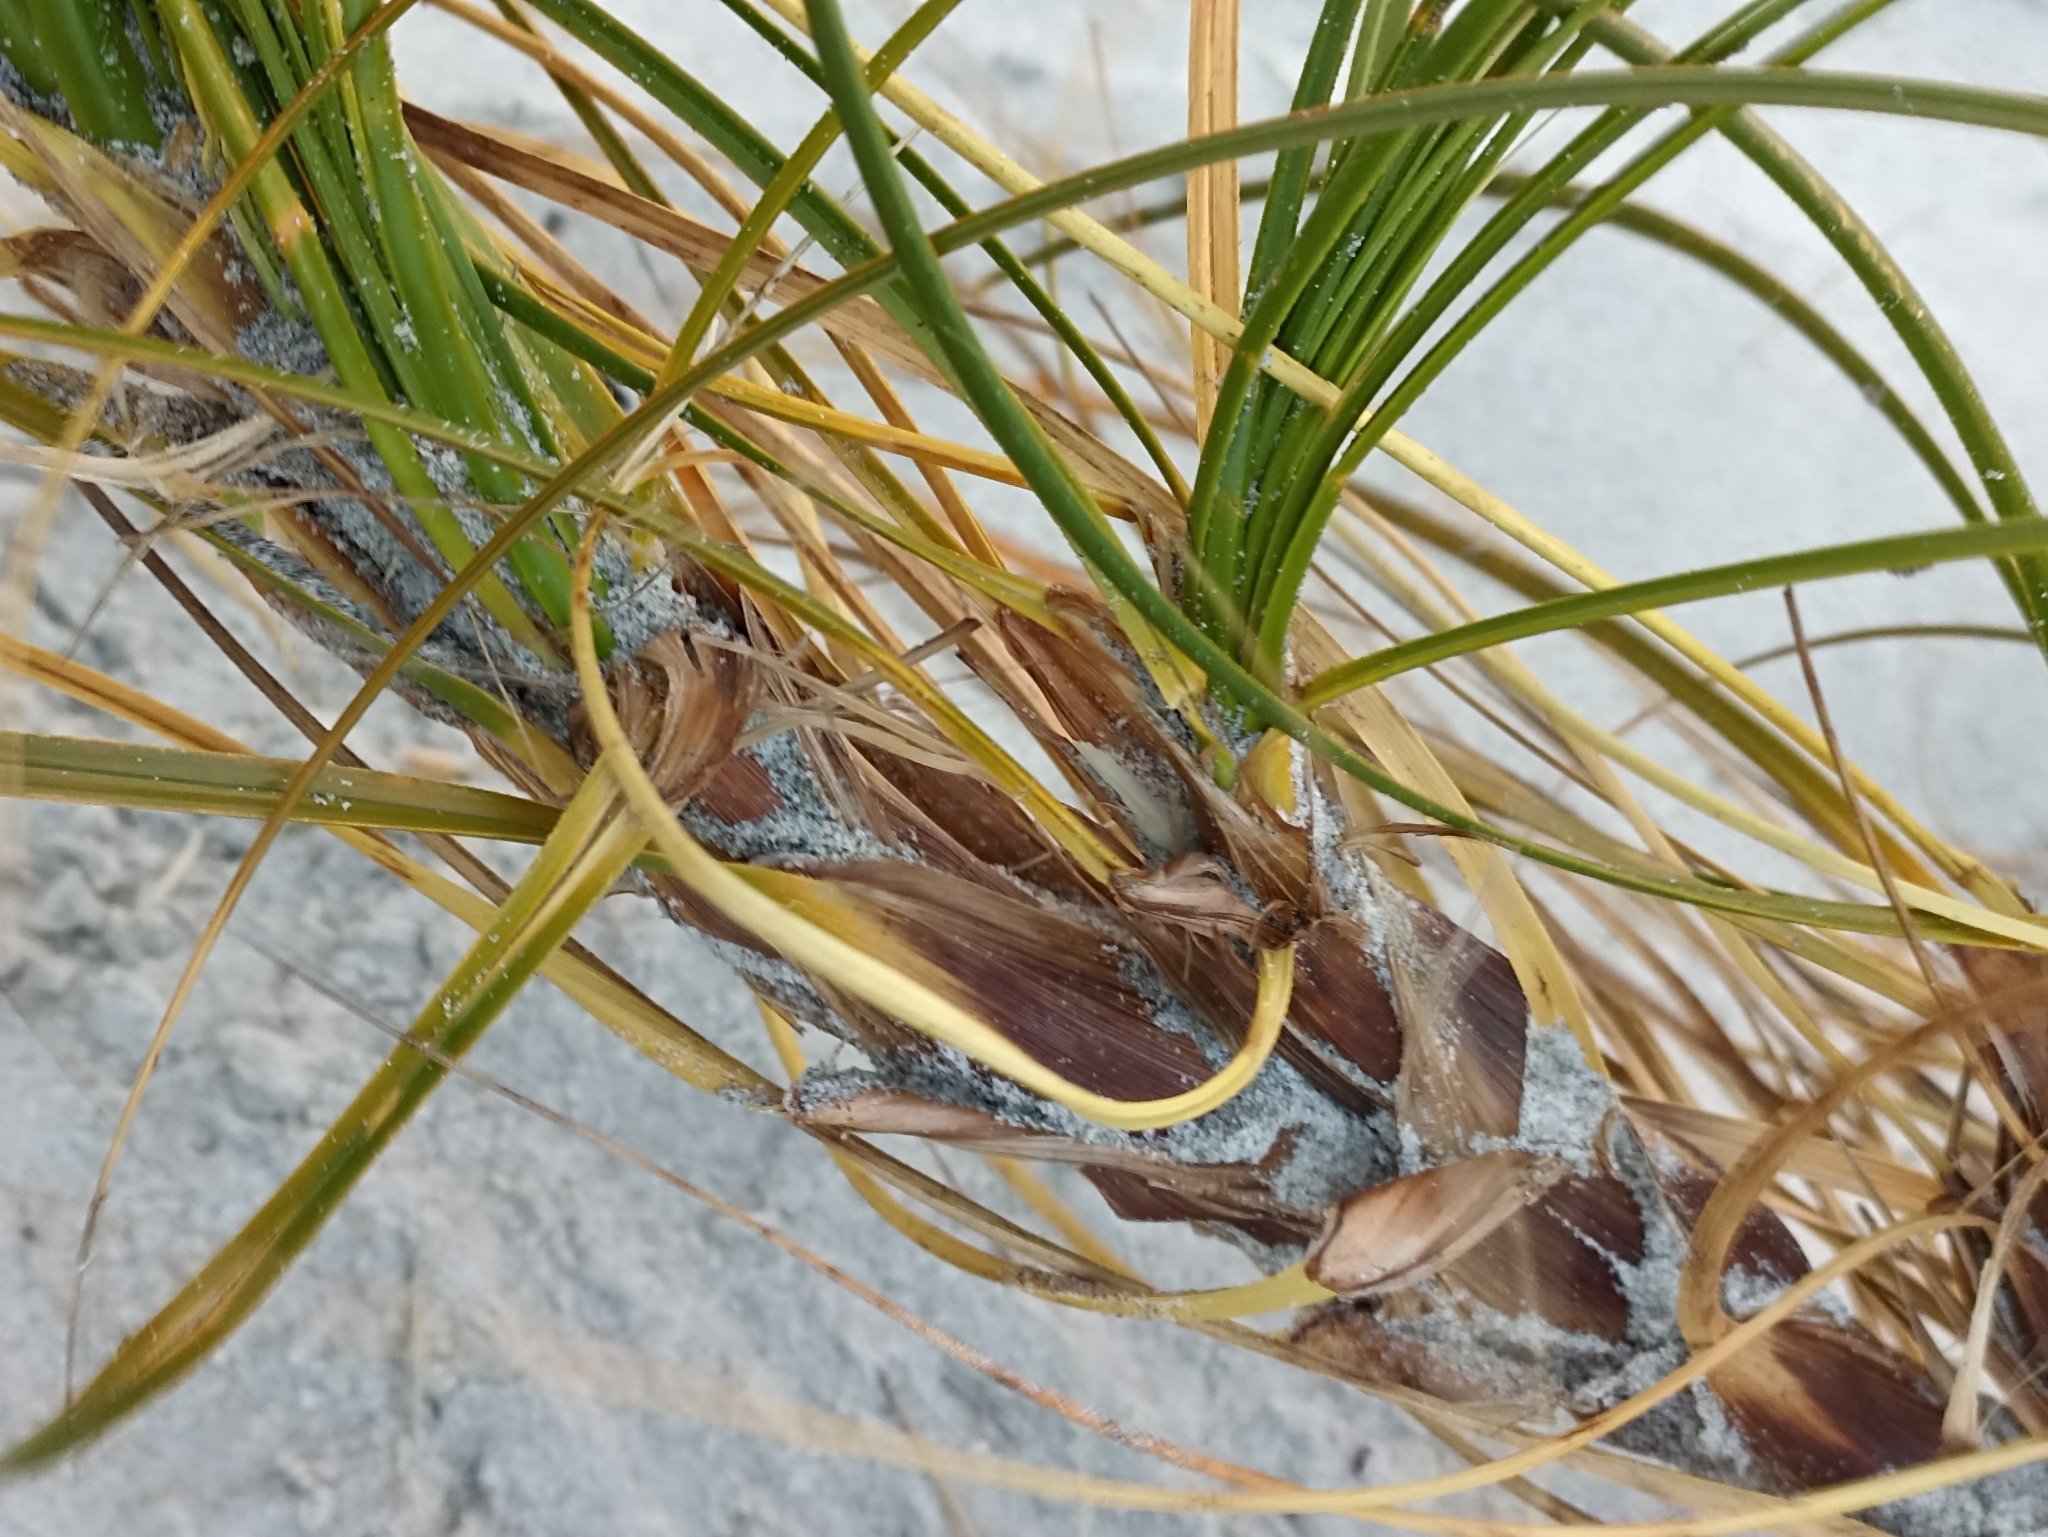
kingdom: Plantae
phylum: Tracheophyta
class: Liliopsida
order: Poales
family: Cyperaceae
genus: Ficinia
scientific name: Ficinia spiralis
